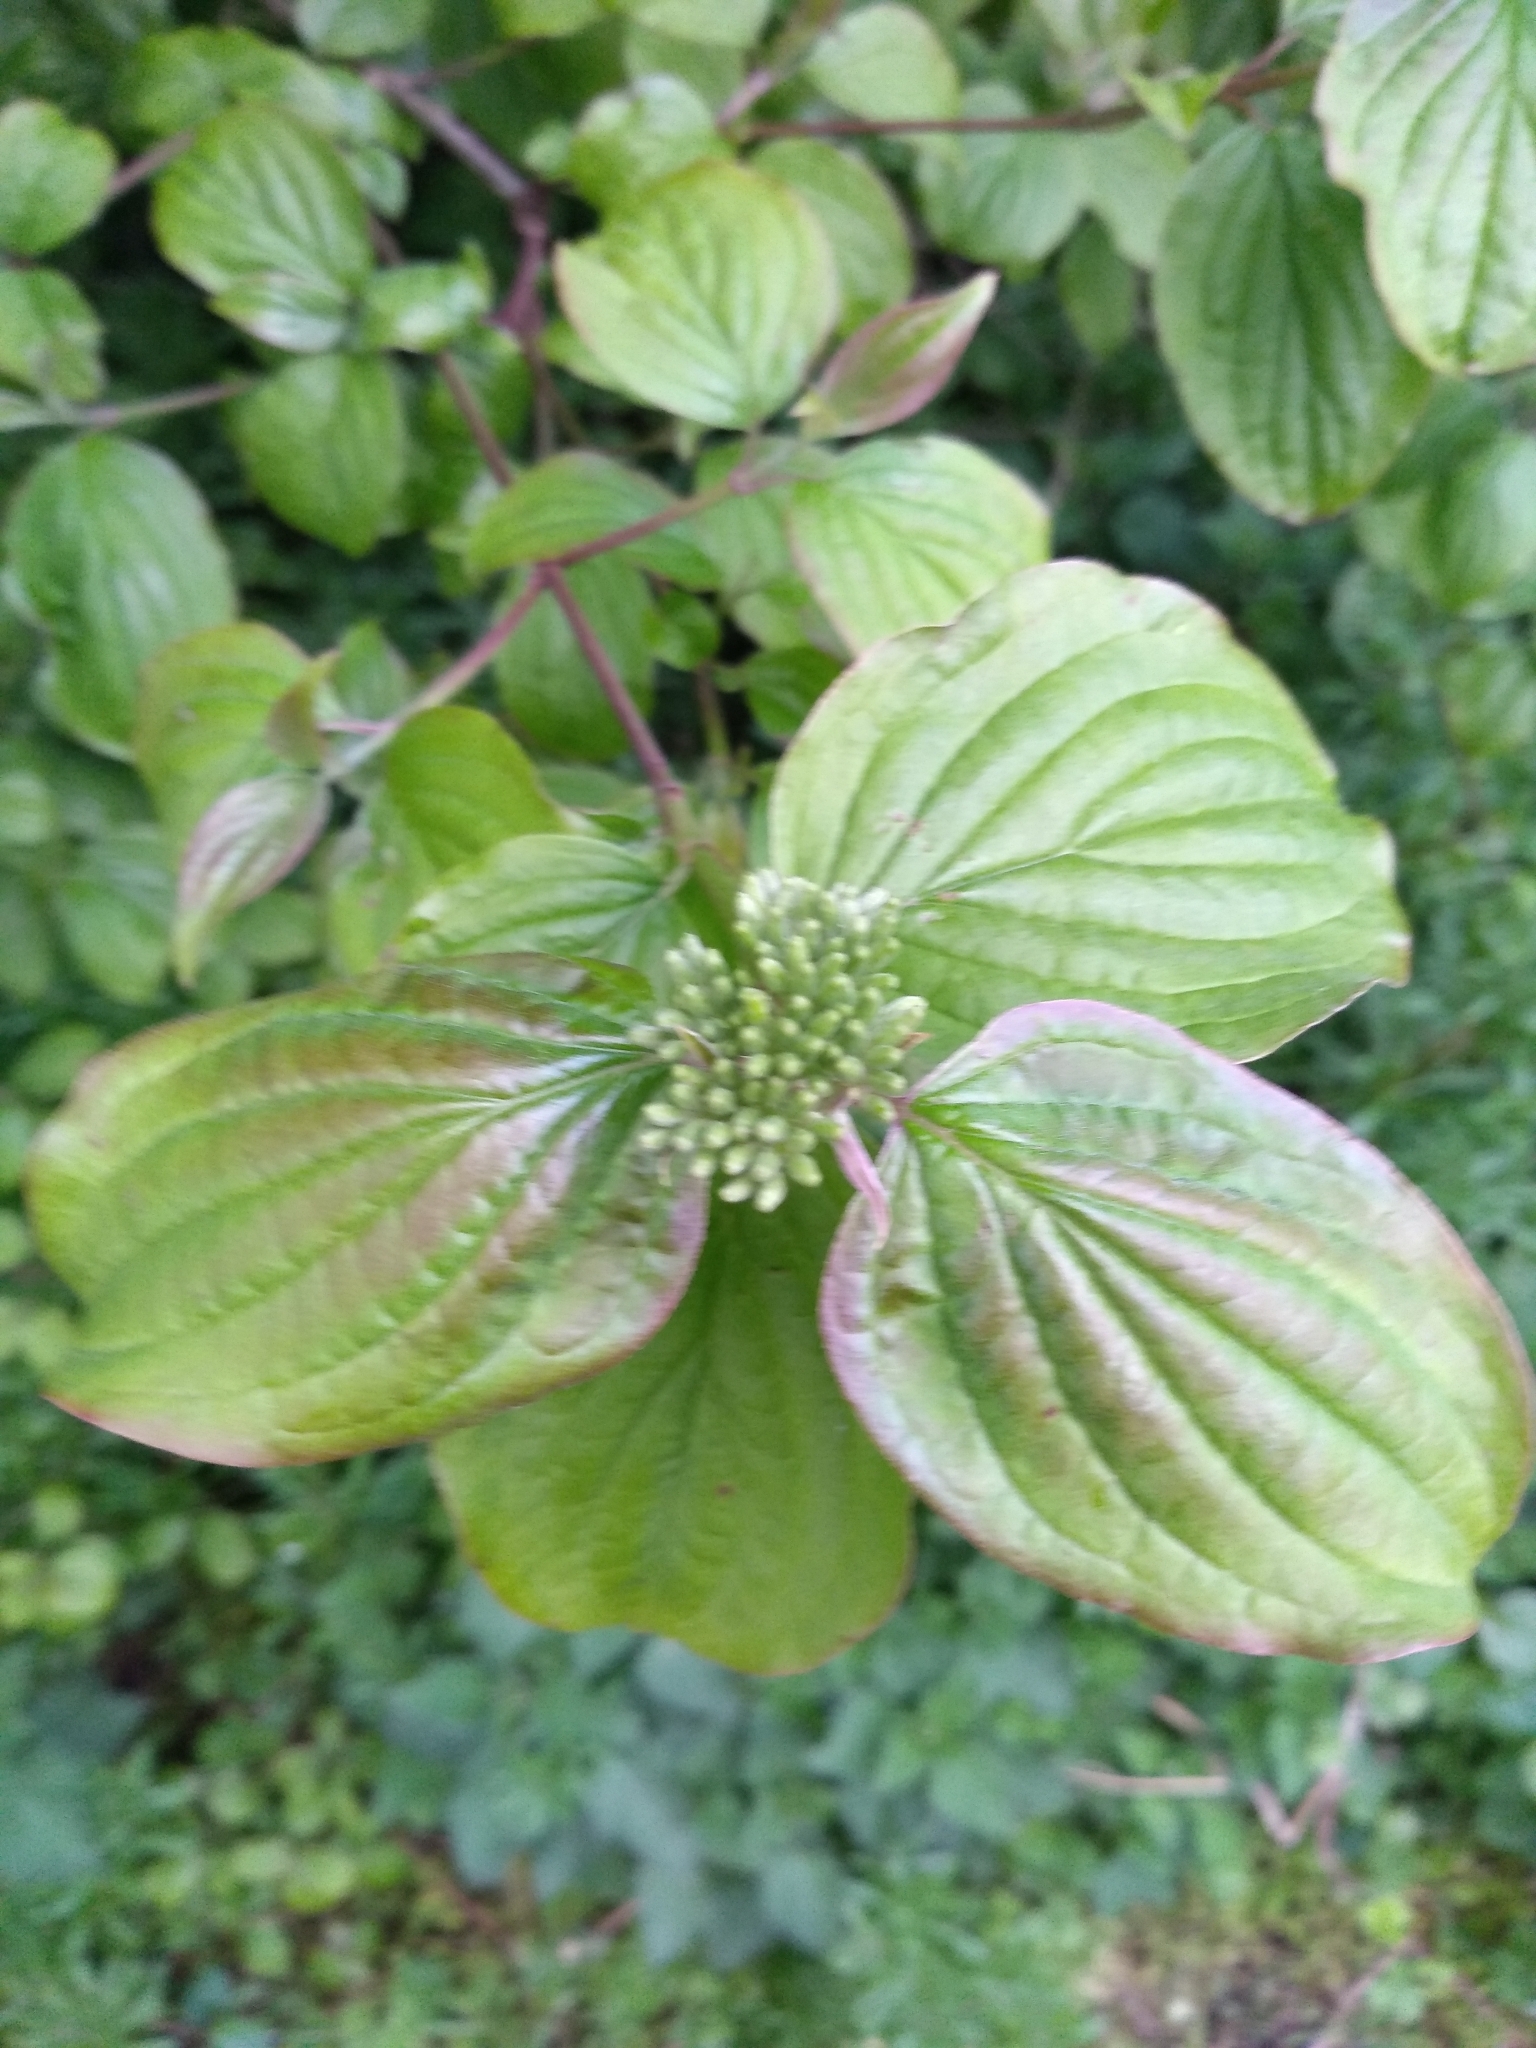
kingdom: Plantae
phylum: Tracheophyta
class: Magnoliopsida
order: Cornales
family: Cornaceae
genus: Cornus
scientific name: Cornus sanguinea
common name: Dogwood
